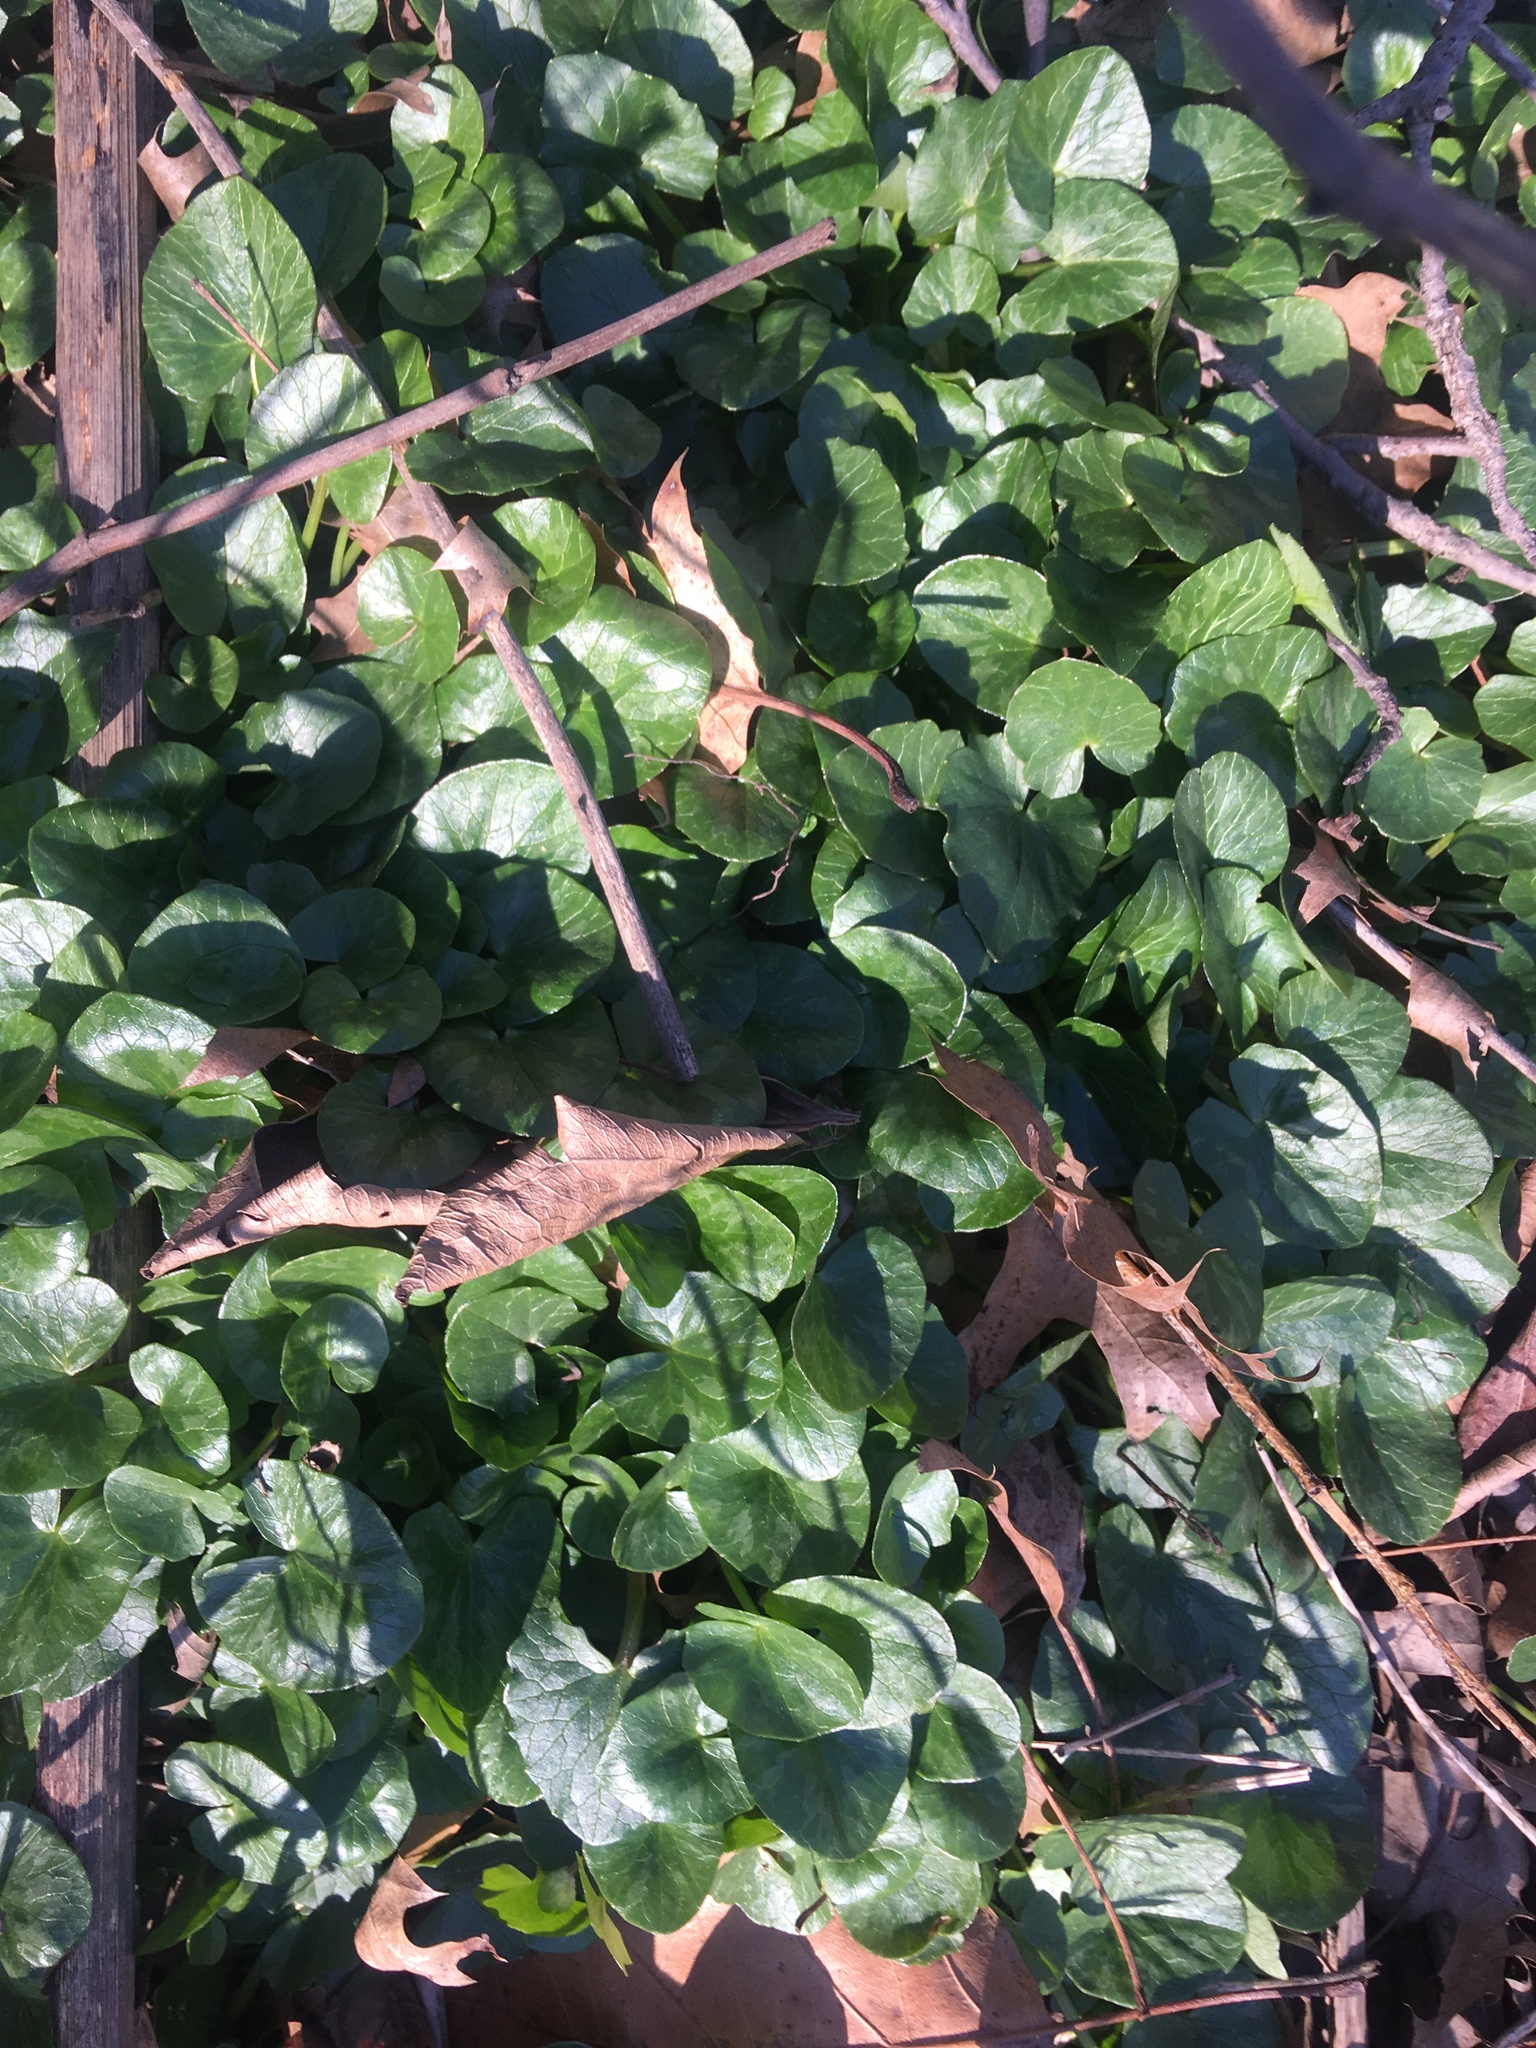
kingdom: Plantae
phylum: Tracheophyta
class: Magnoliopsida
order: Ranunculales
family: Ranunculaceae
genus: Ficaria
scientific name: Ficaria verna
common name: Lesser celandine
